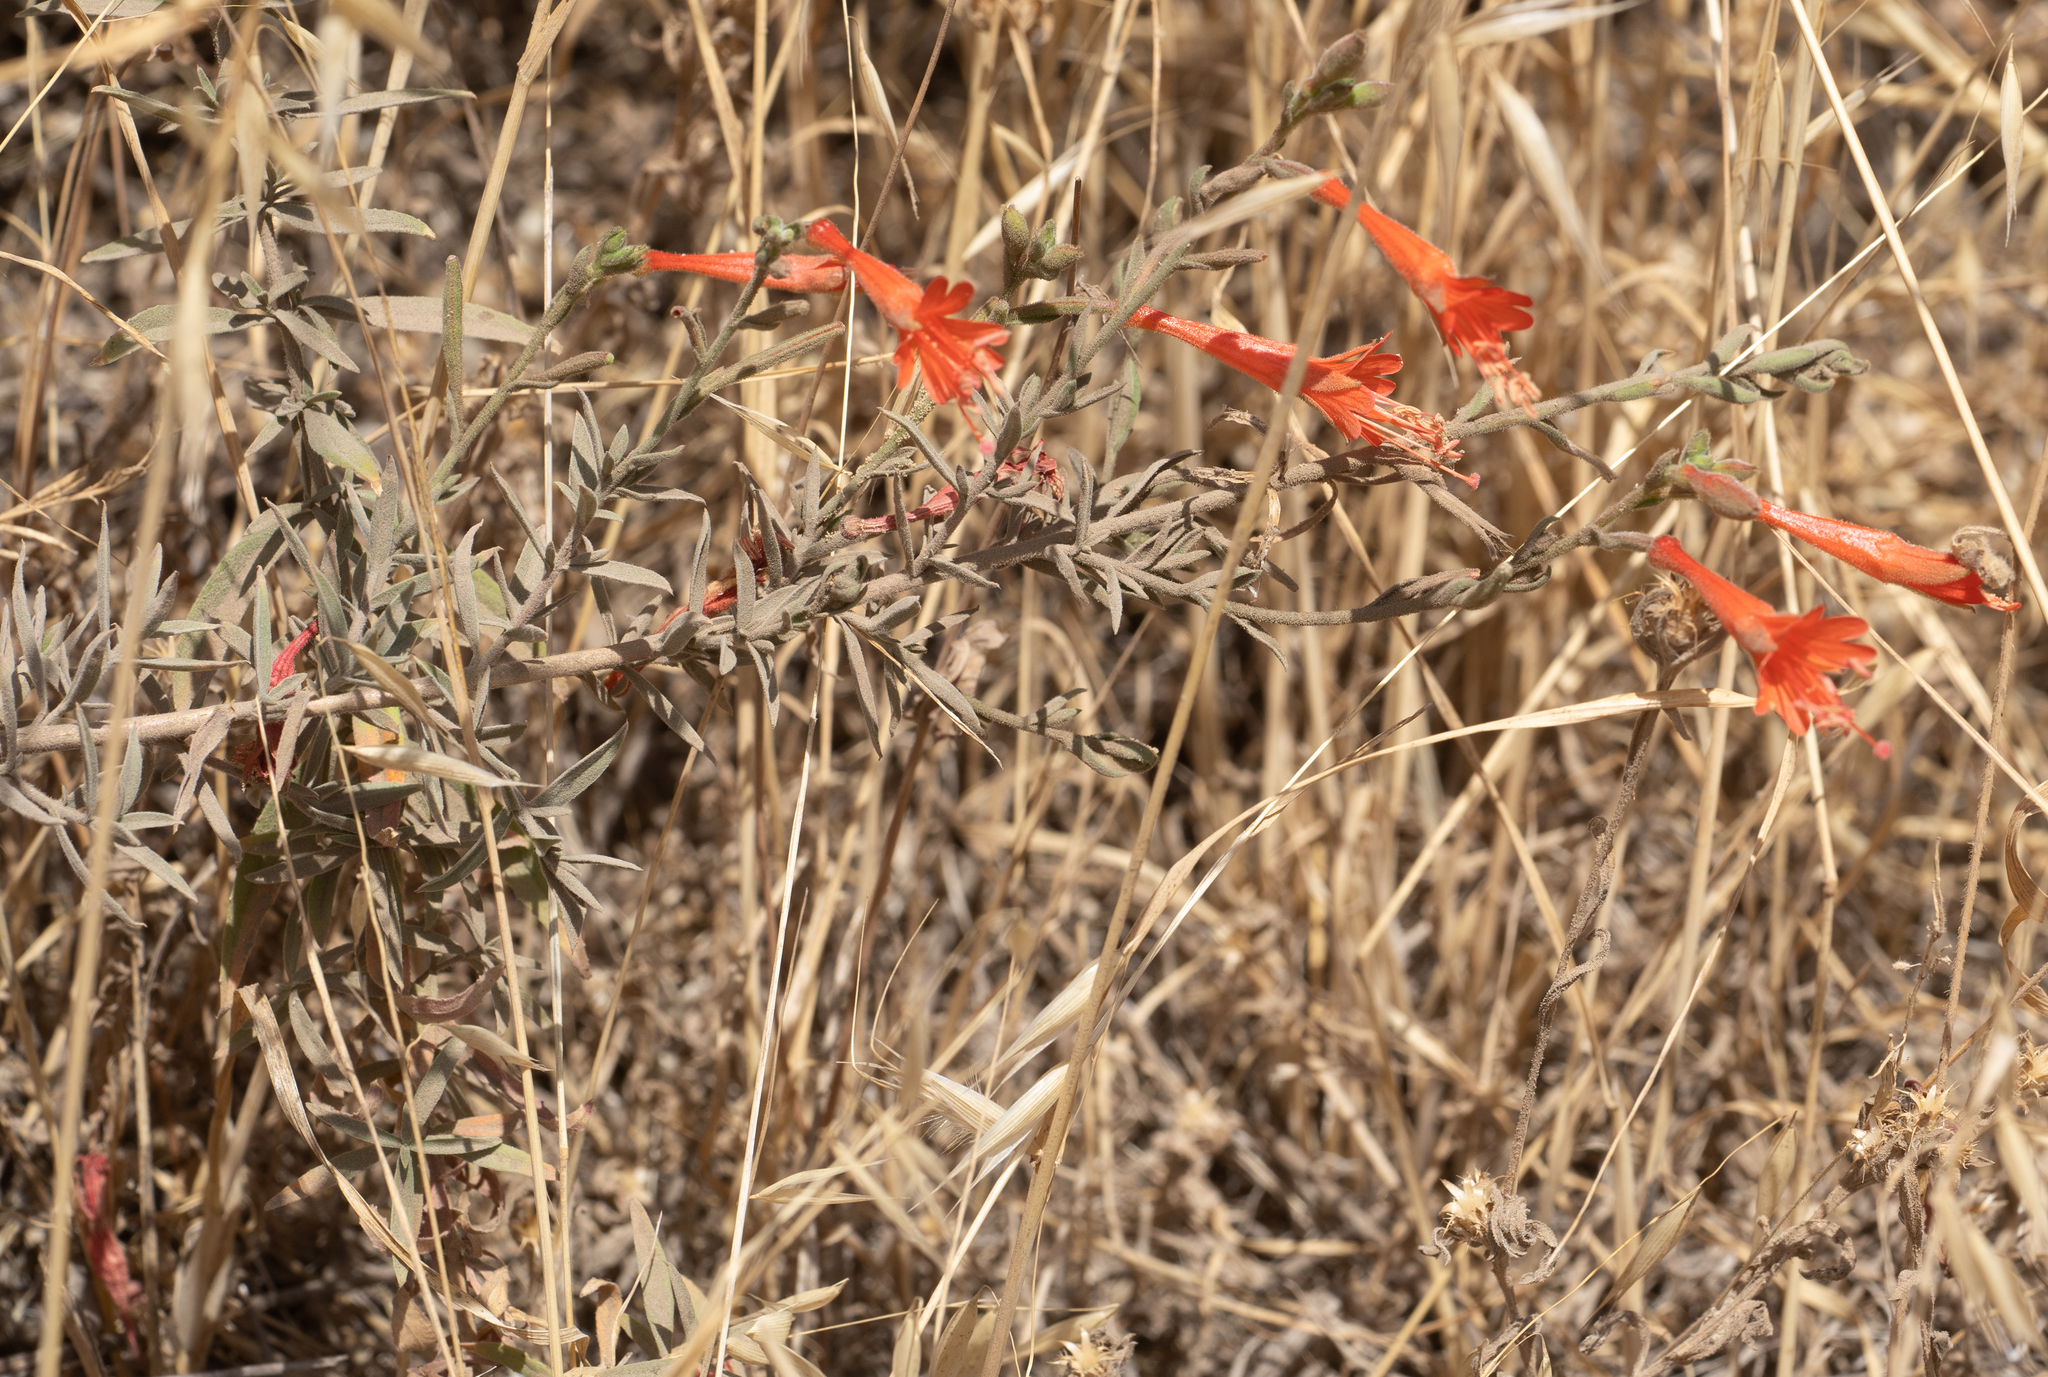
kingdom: Plantae
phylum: Tracheophyta
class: Magnoliopsida
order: Myrtales
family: Onagraceae
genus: Epilobium
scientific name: Epilobium canum
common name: California-fuchsia
